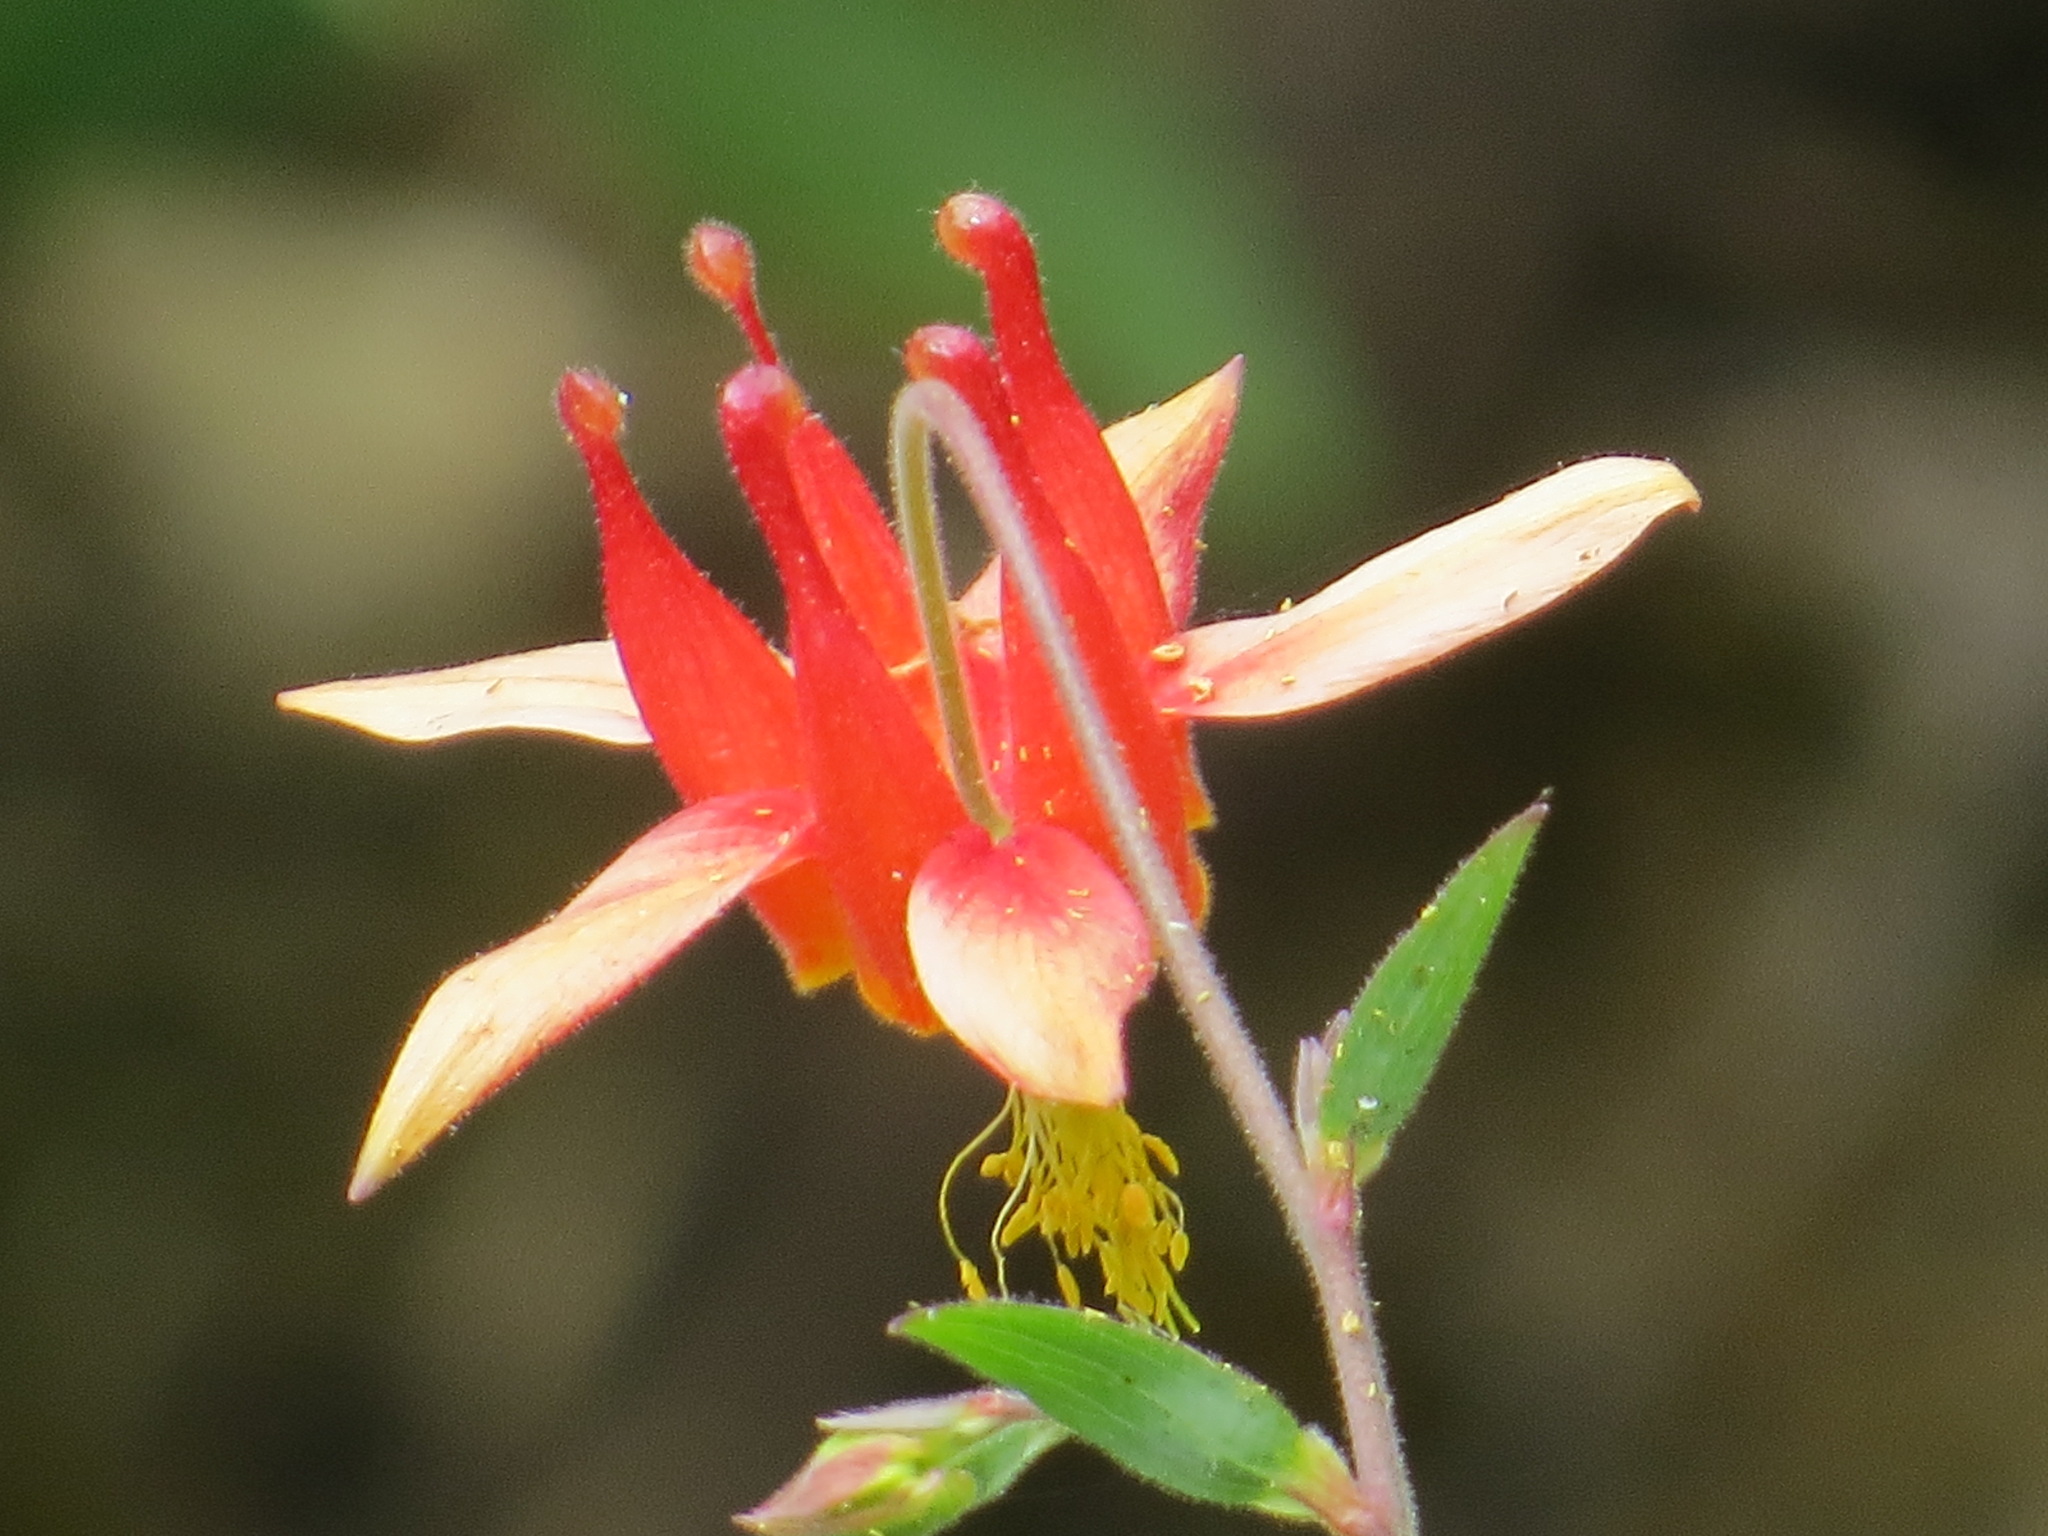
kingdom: Plantae
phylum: Tracheophyta
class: Magnoliopsida
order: Ranunculales
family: Ranunculaceae
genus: Aquilegia
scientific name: Aquilegia formosa
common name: Sitka columbine
